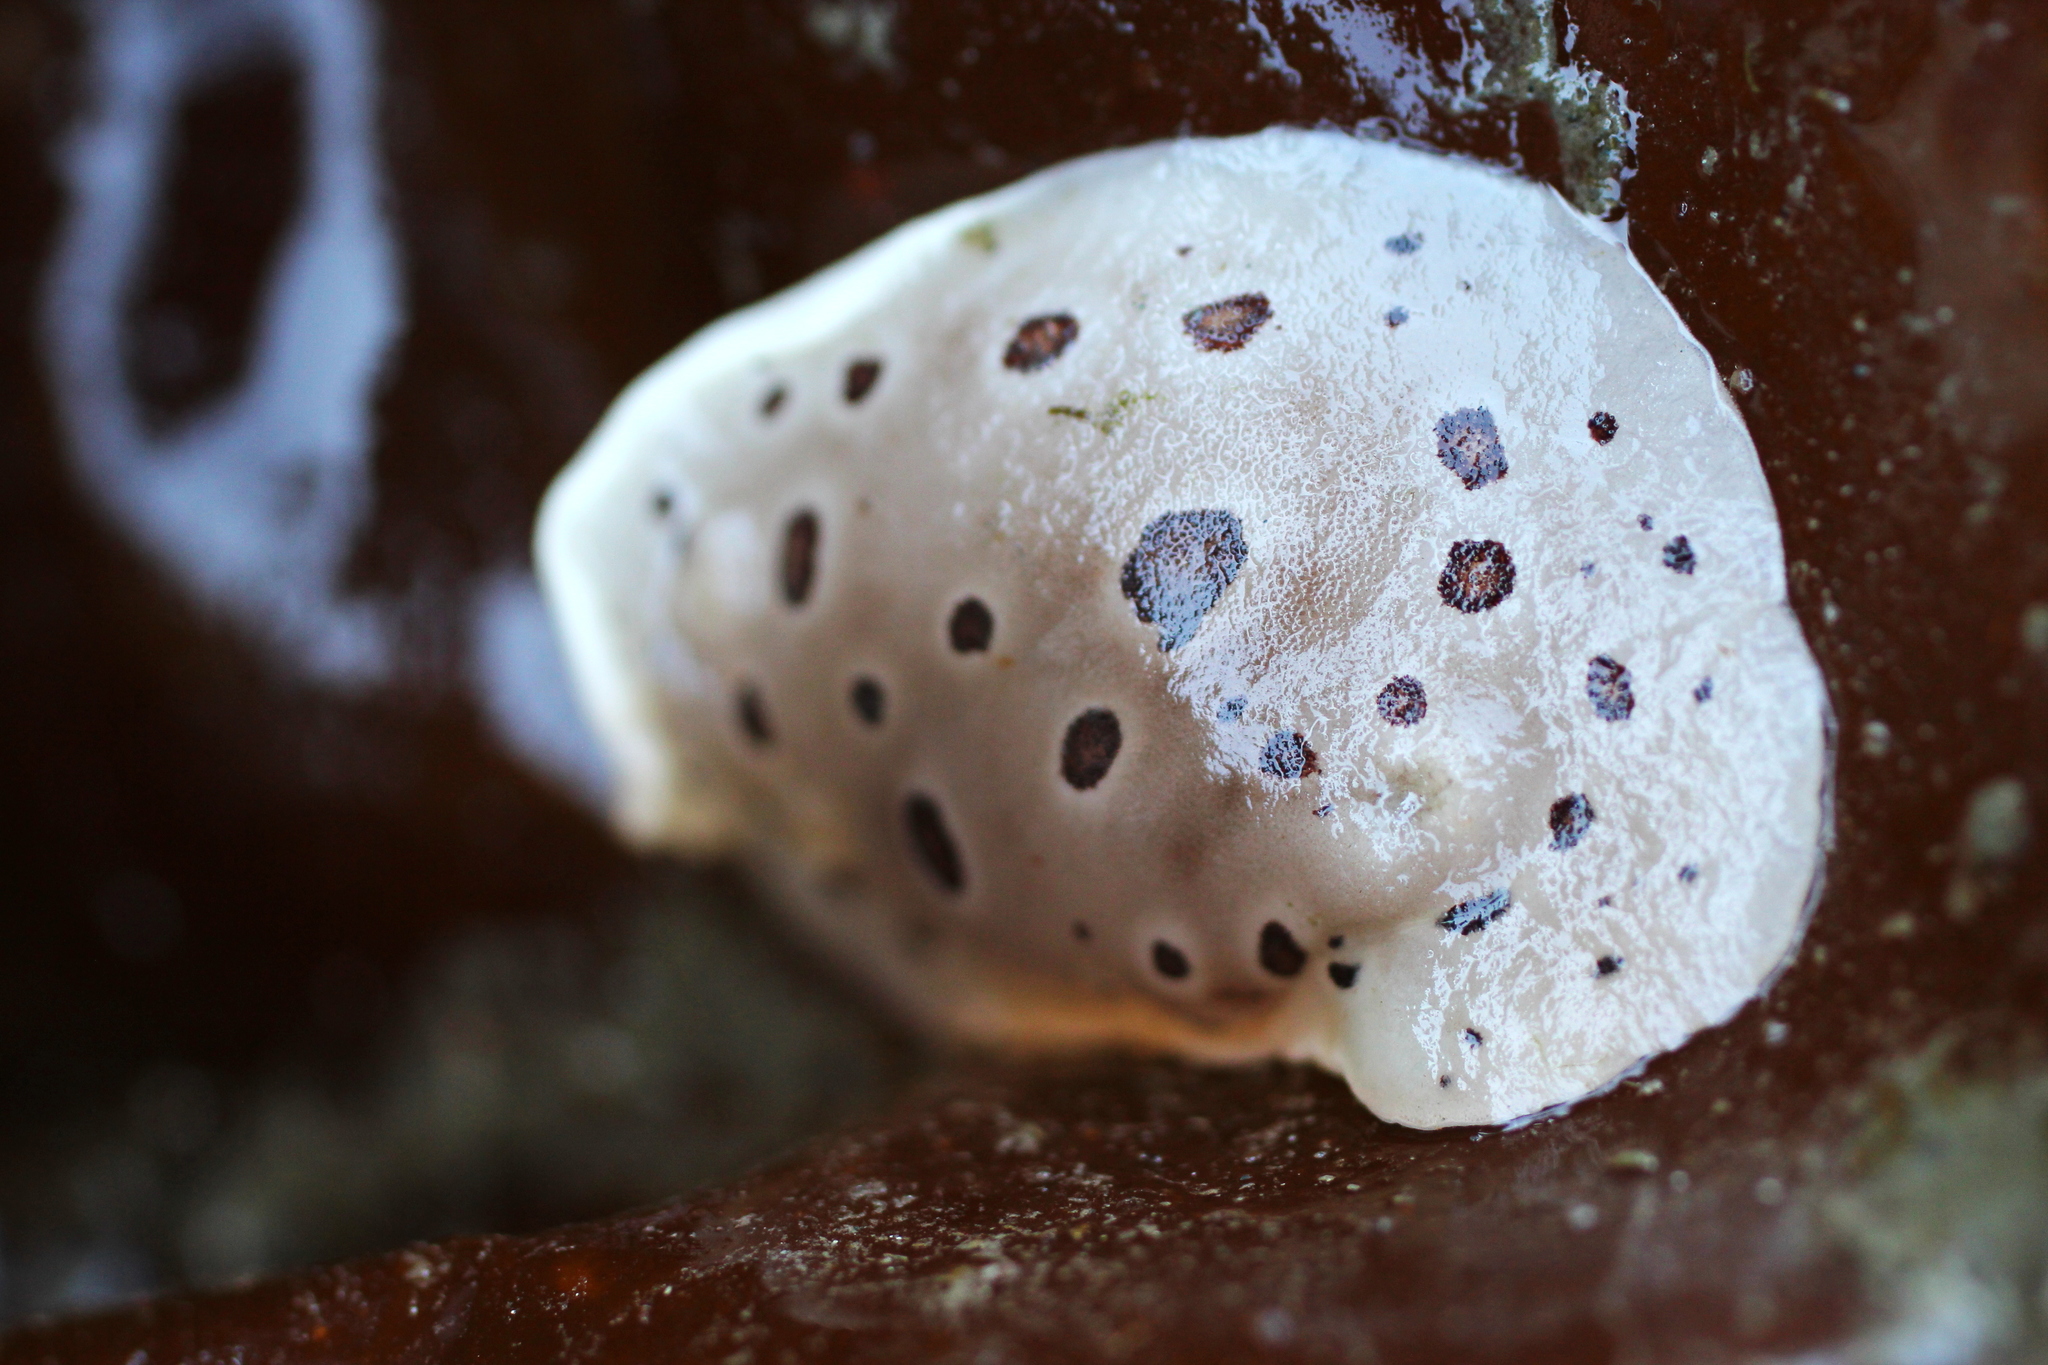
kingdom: Animalia
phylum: Mollusca
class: Gastropoda
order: Nudibranchia
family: Discodorididae
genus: Diaulula
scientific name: Diaulula odonoghuei
